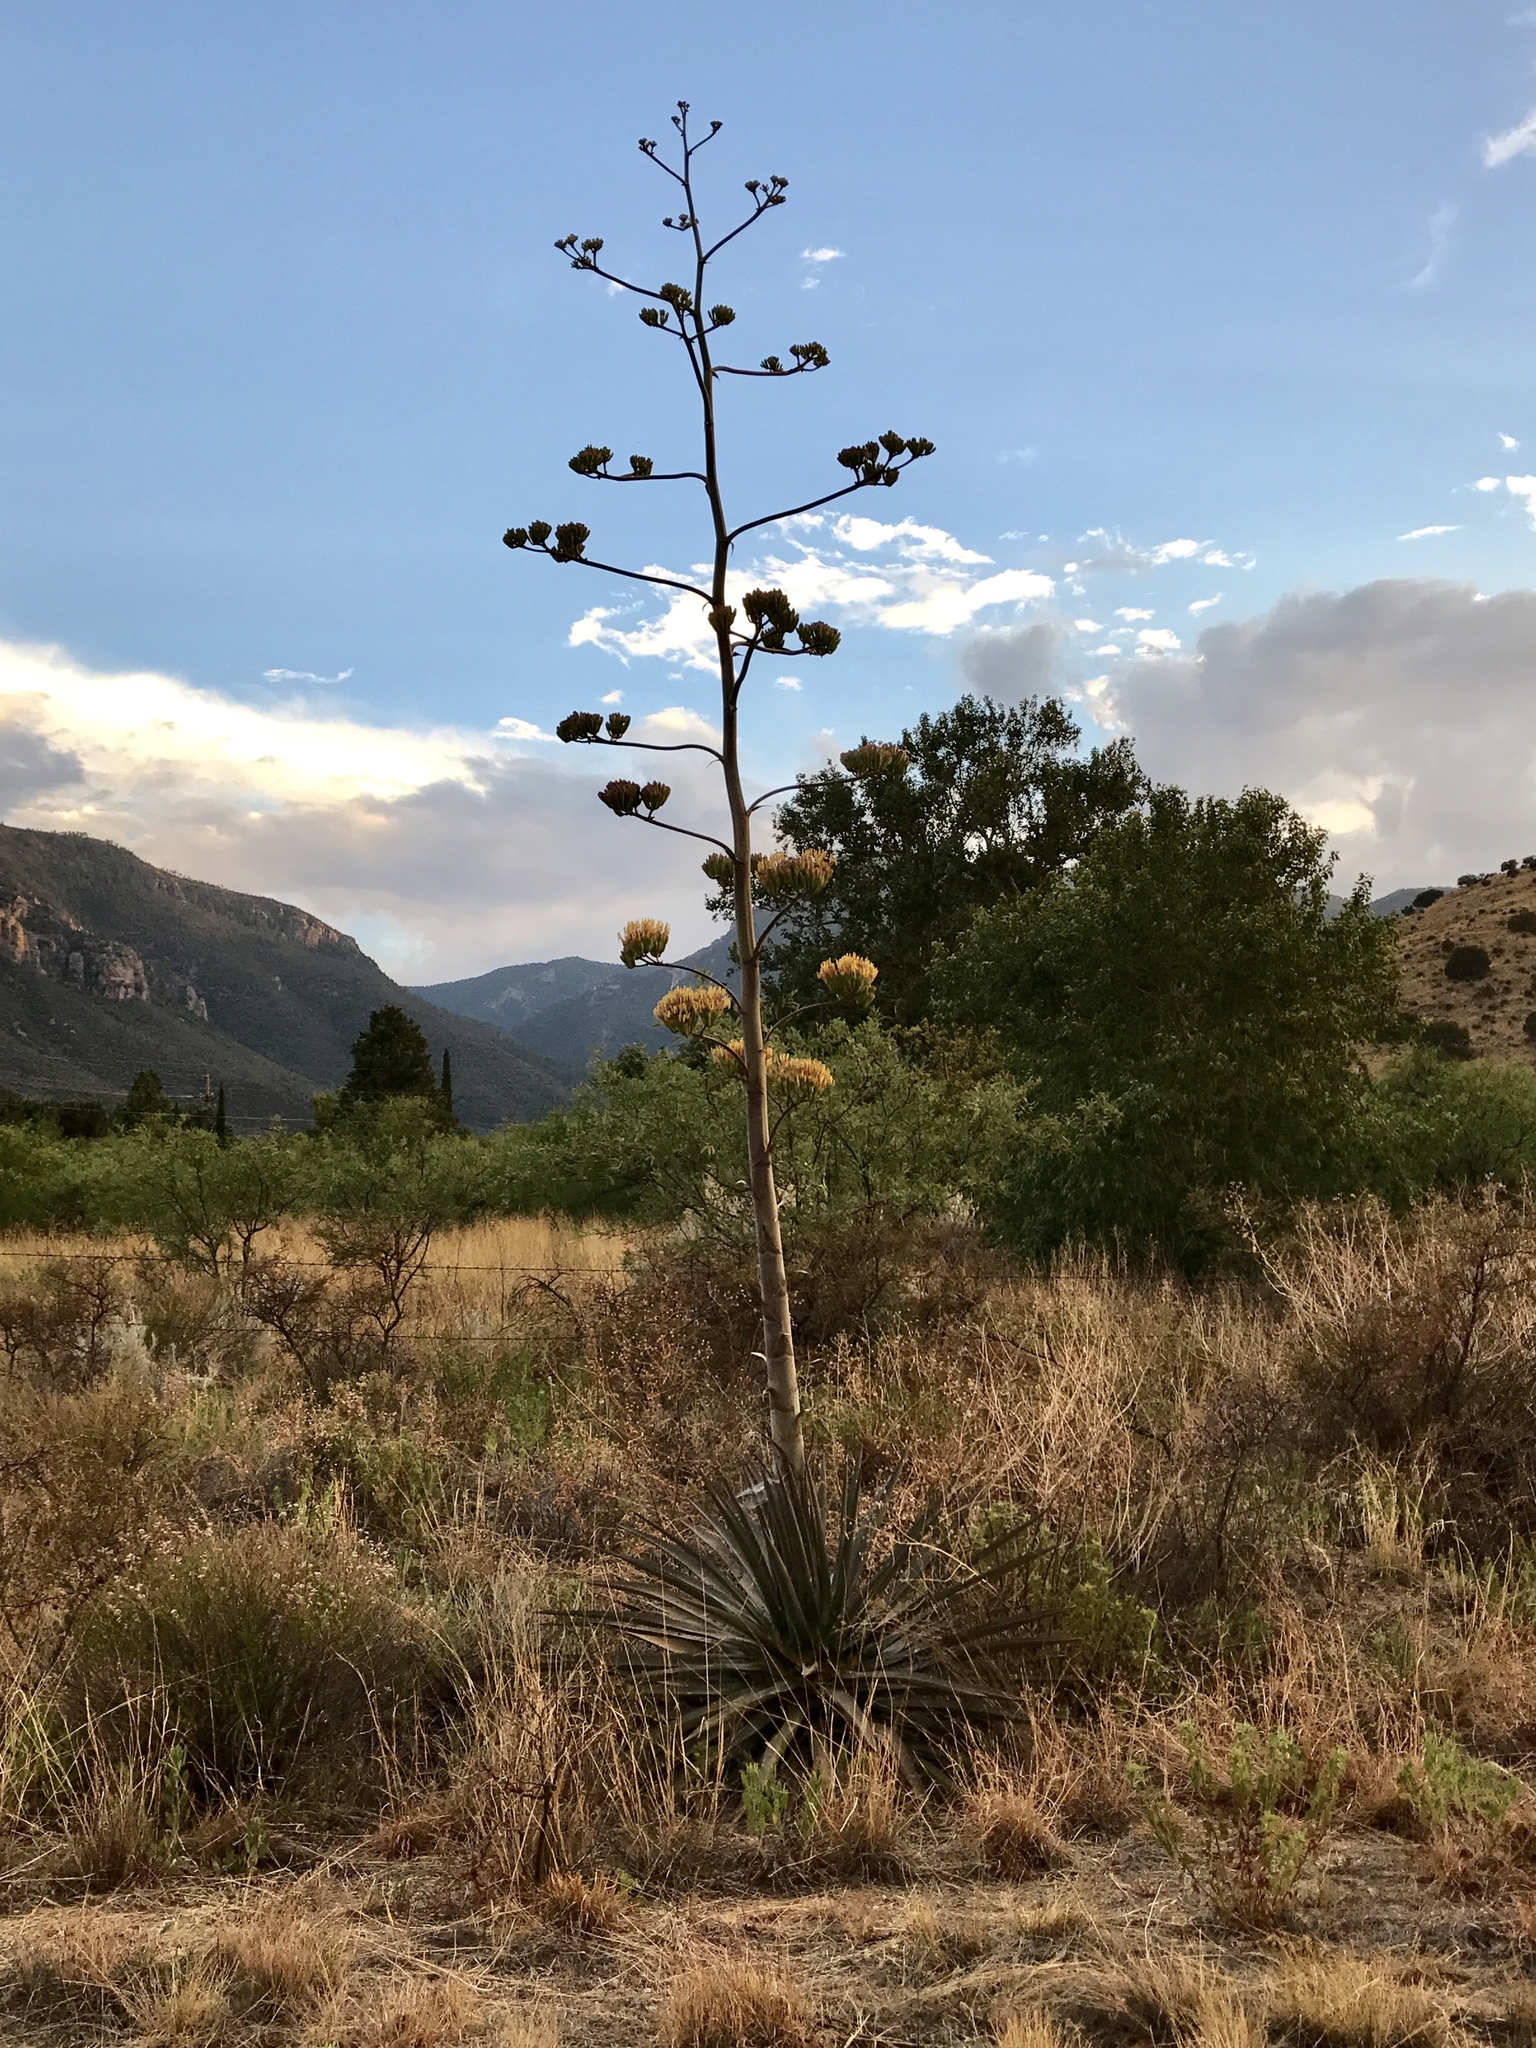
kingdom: Plantae
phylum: Tracheophyta
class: Liliopsida
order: Asparagales
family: Asparagaceae
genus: Agave
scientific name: Agave palmeri
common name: Palmer agave
